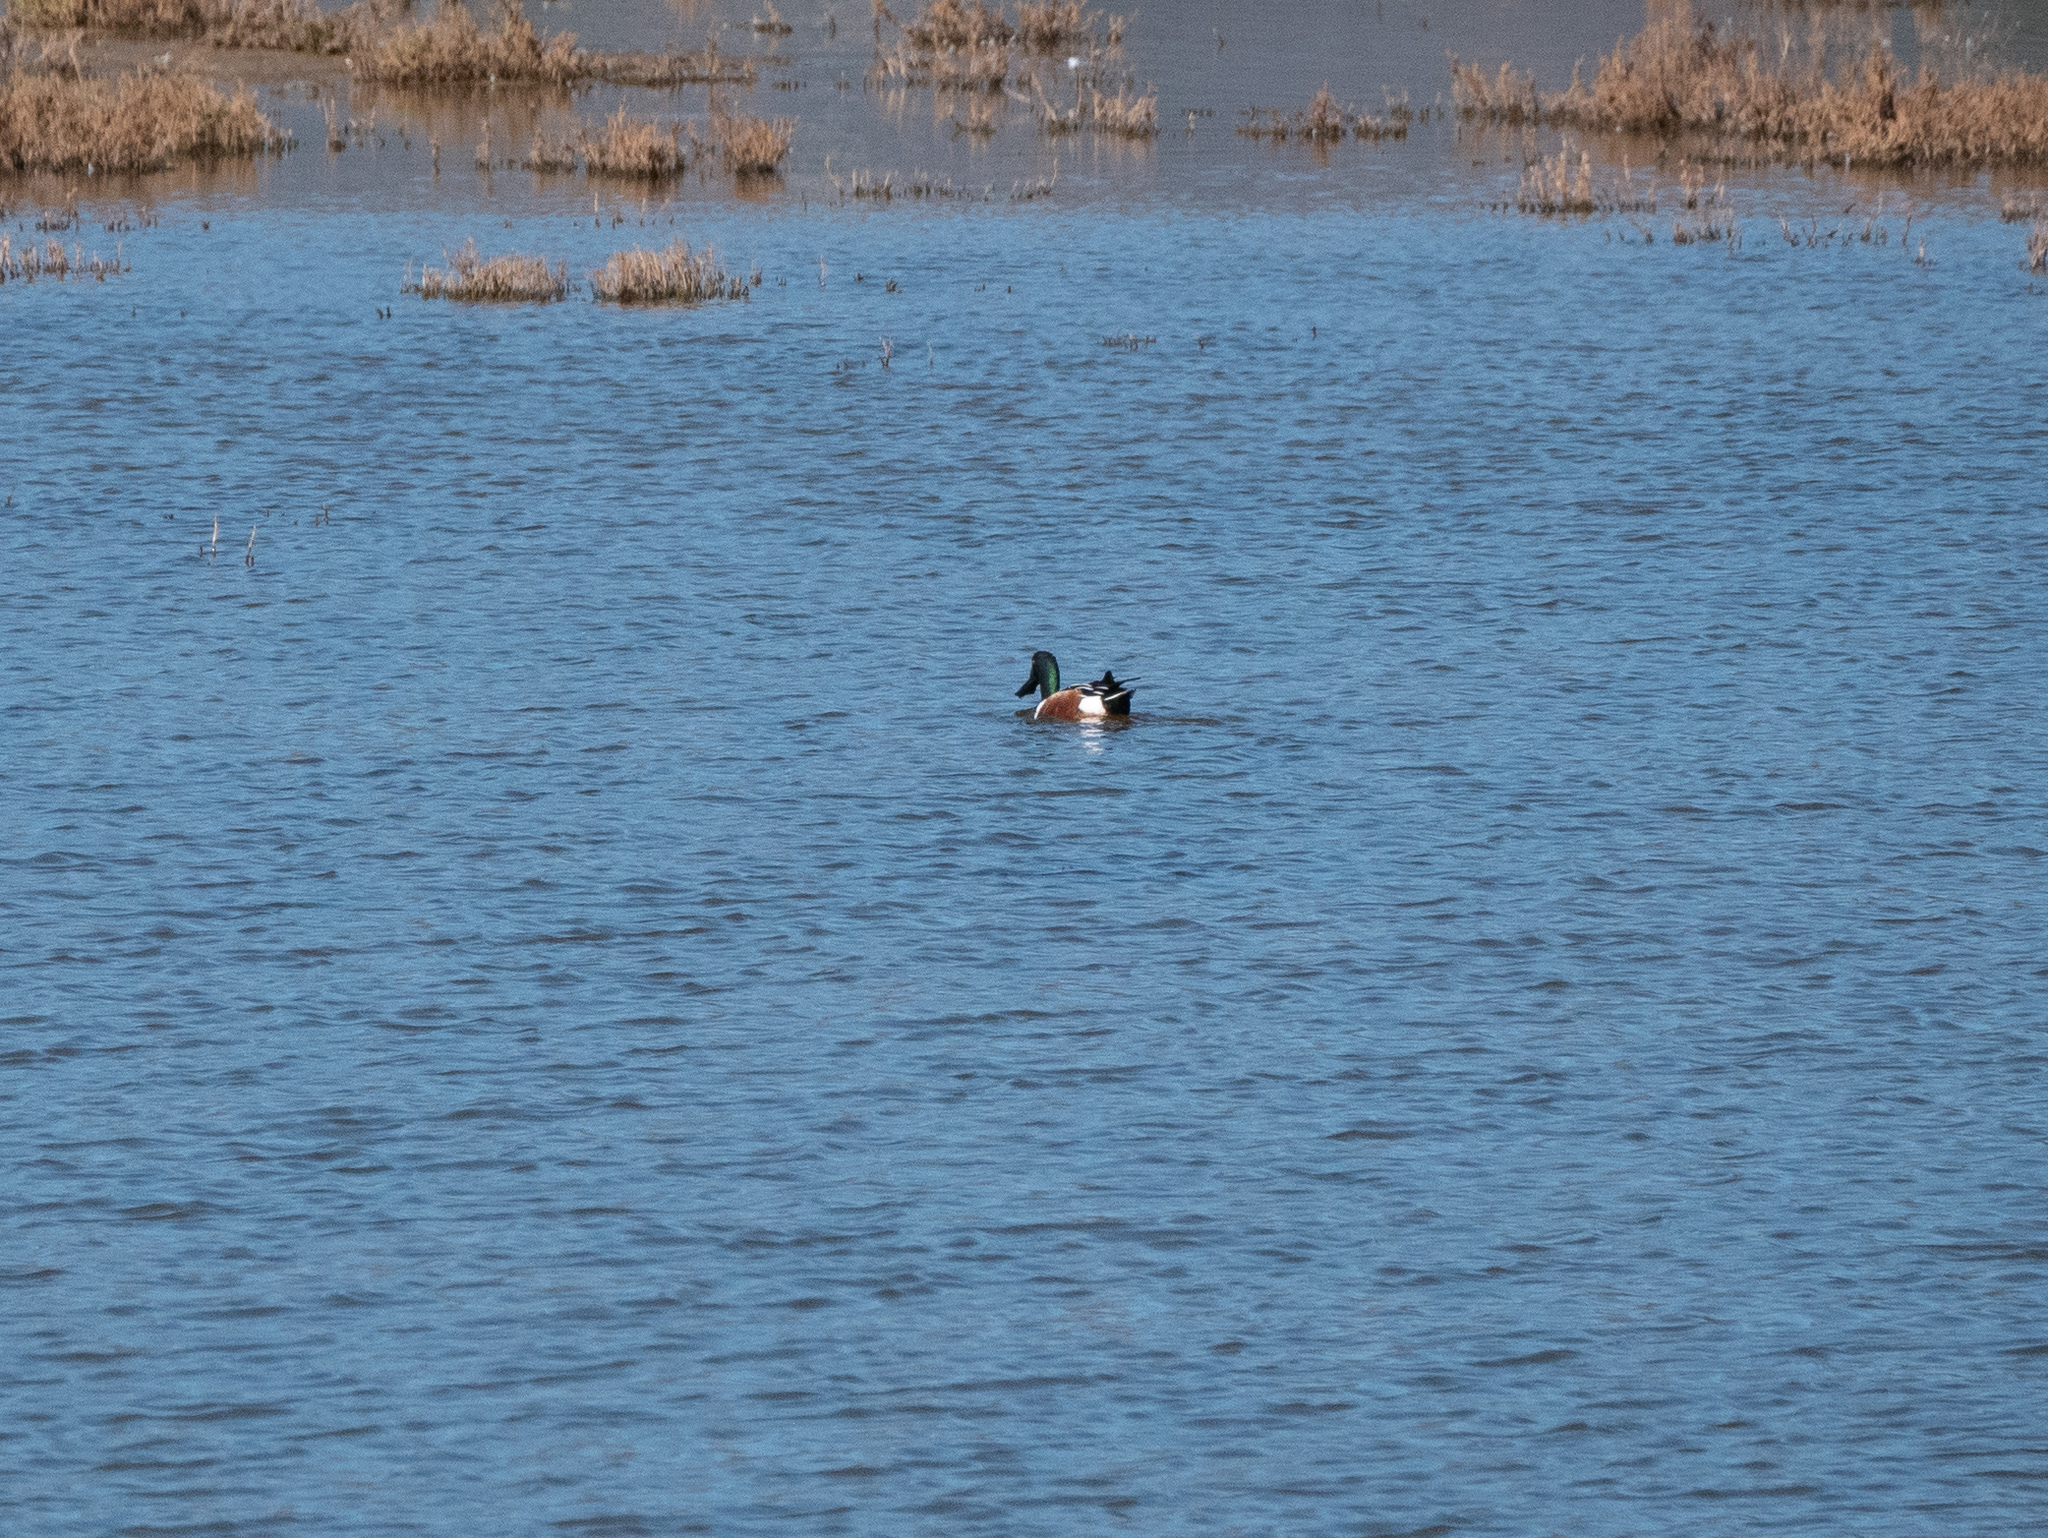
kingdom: Animalia
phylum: Chordata
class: Aves
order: Anseriformes
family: Anatidae
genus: Spatula
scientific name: Spatula clypeata
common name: Northern shoveler
